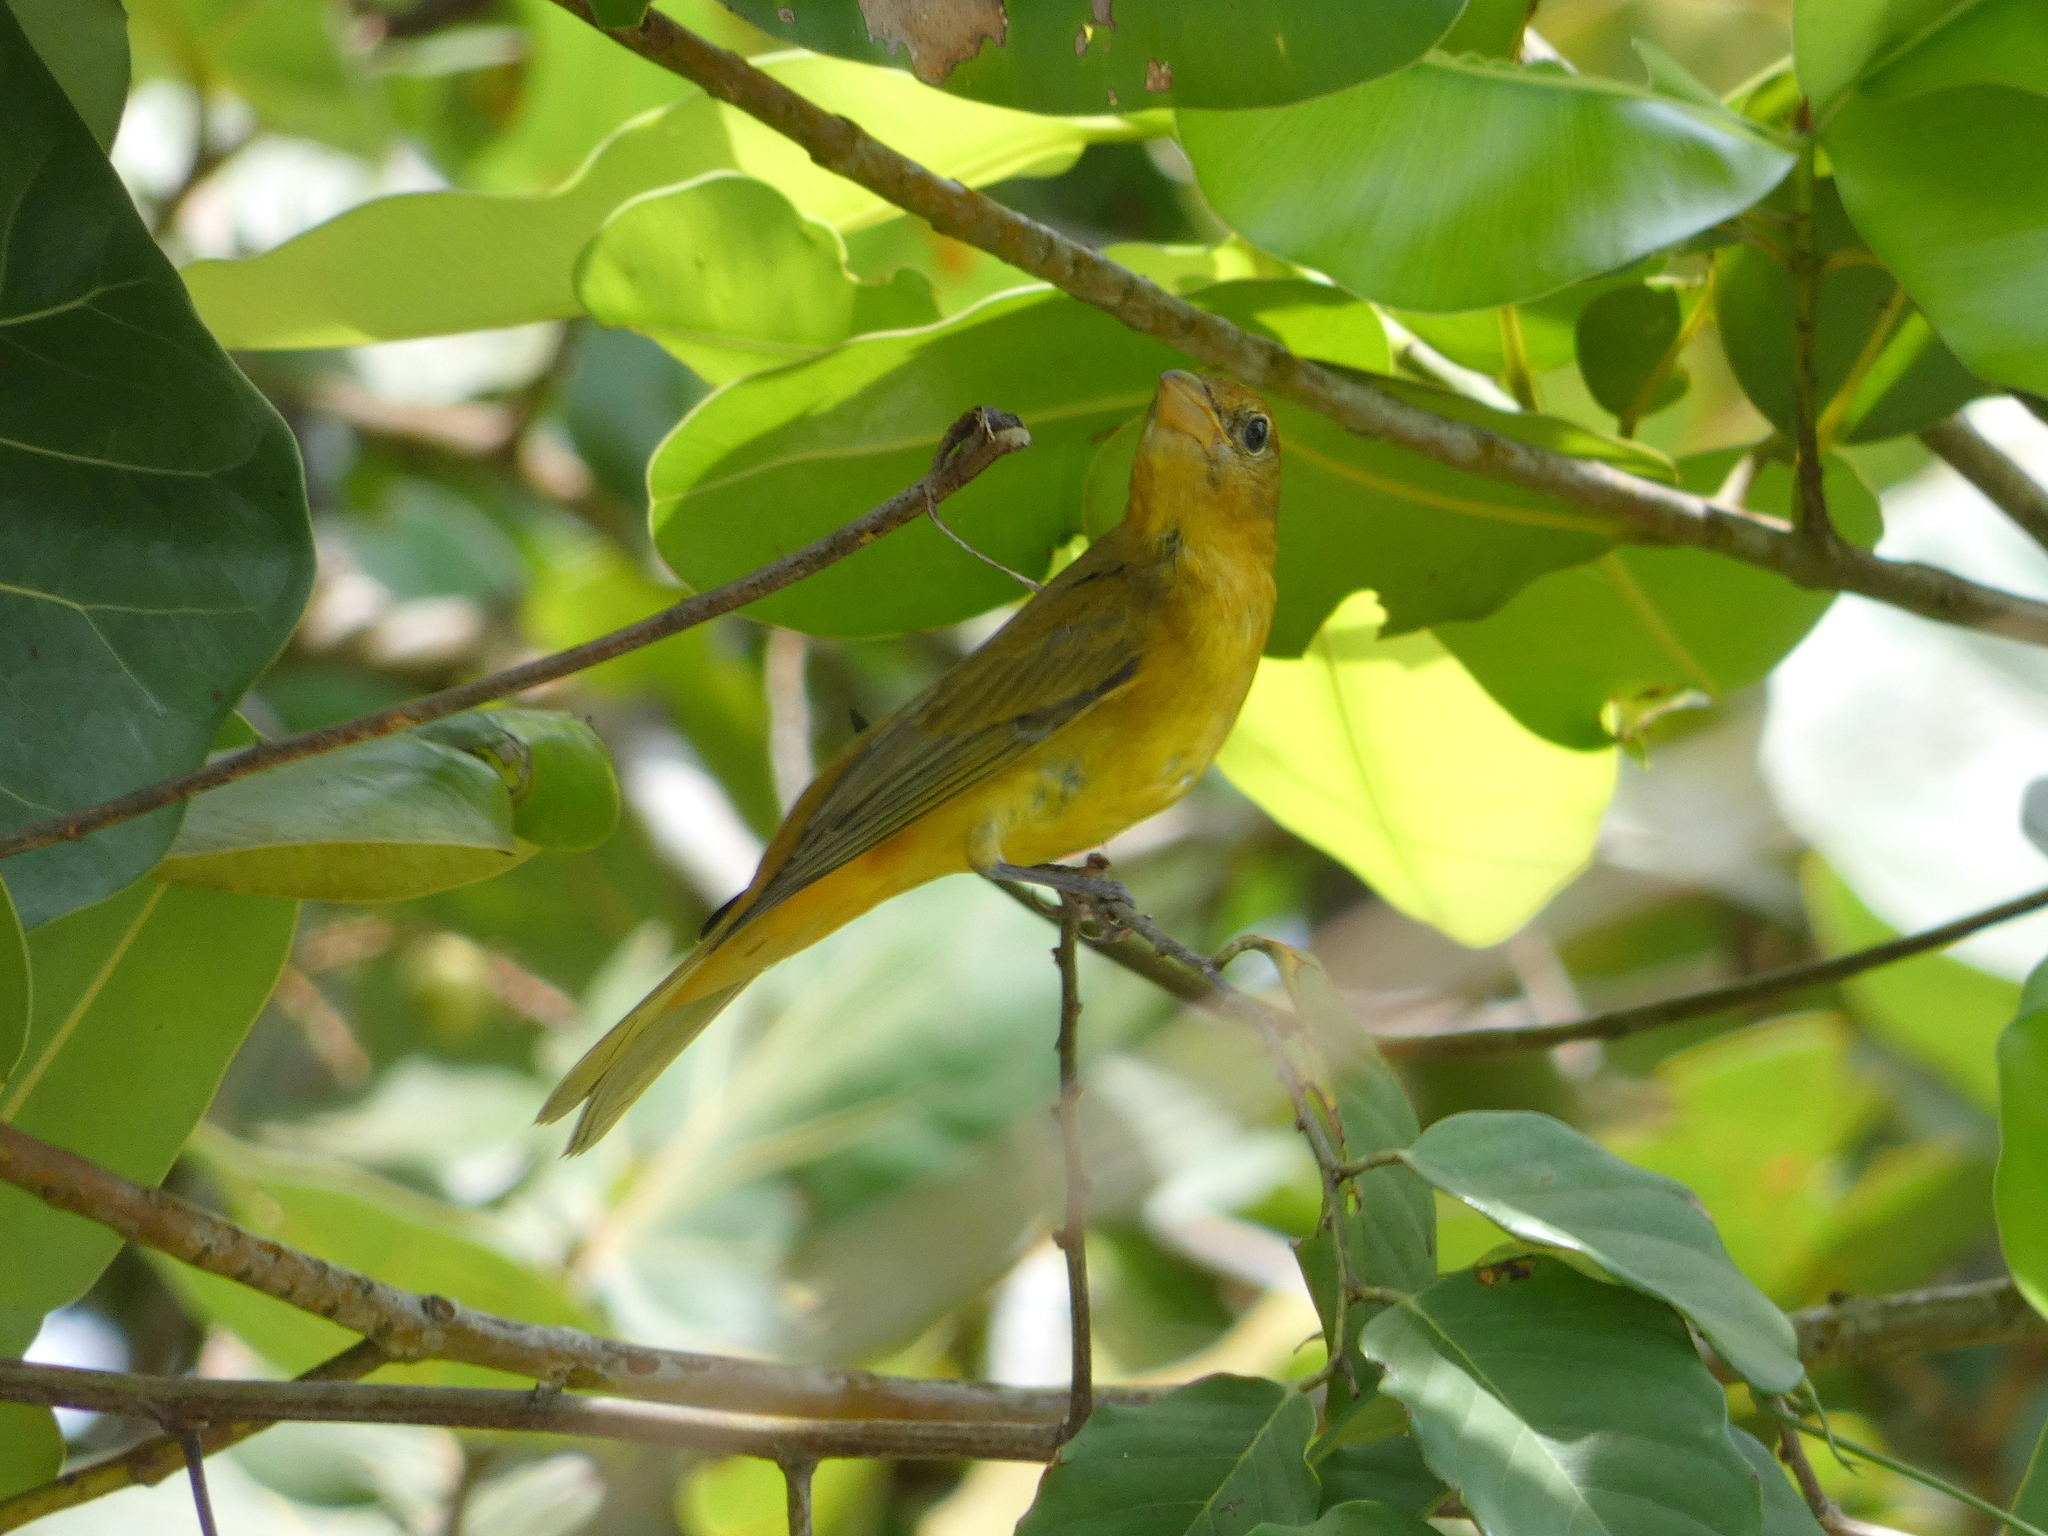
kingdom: Animalia
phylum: Chordata
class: Aves
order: Passeriformes
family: Cardinalidae
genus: Piranga
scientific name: Piranga rubra
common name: Summer tanager
